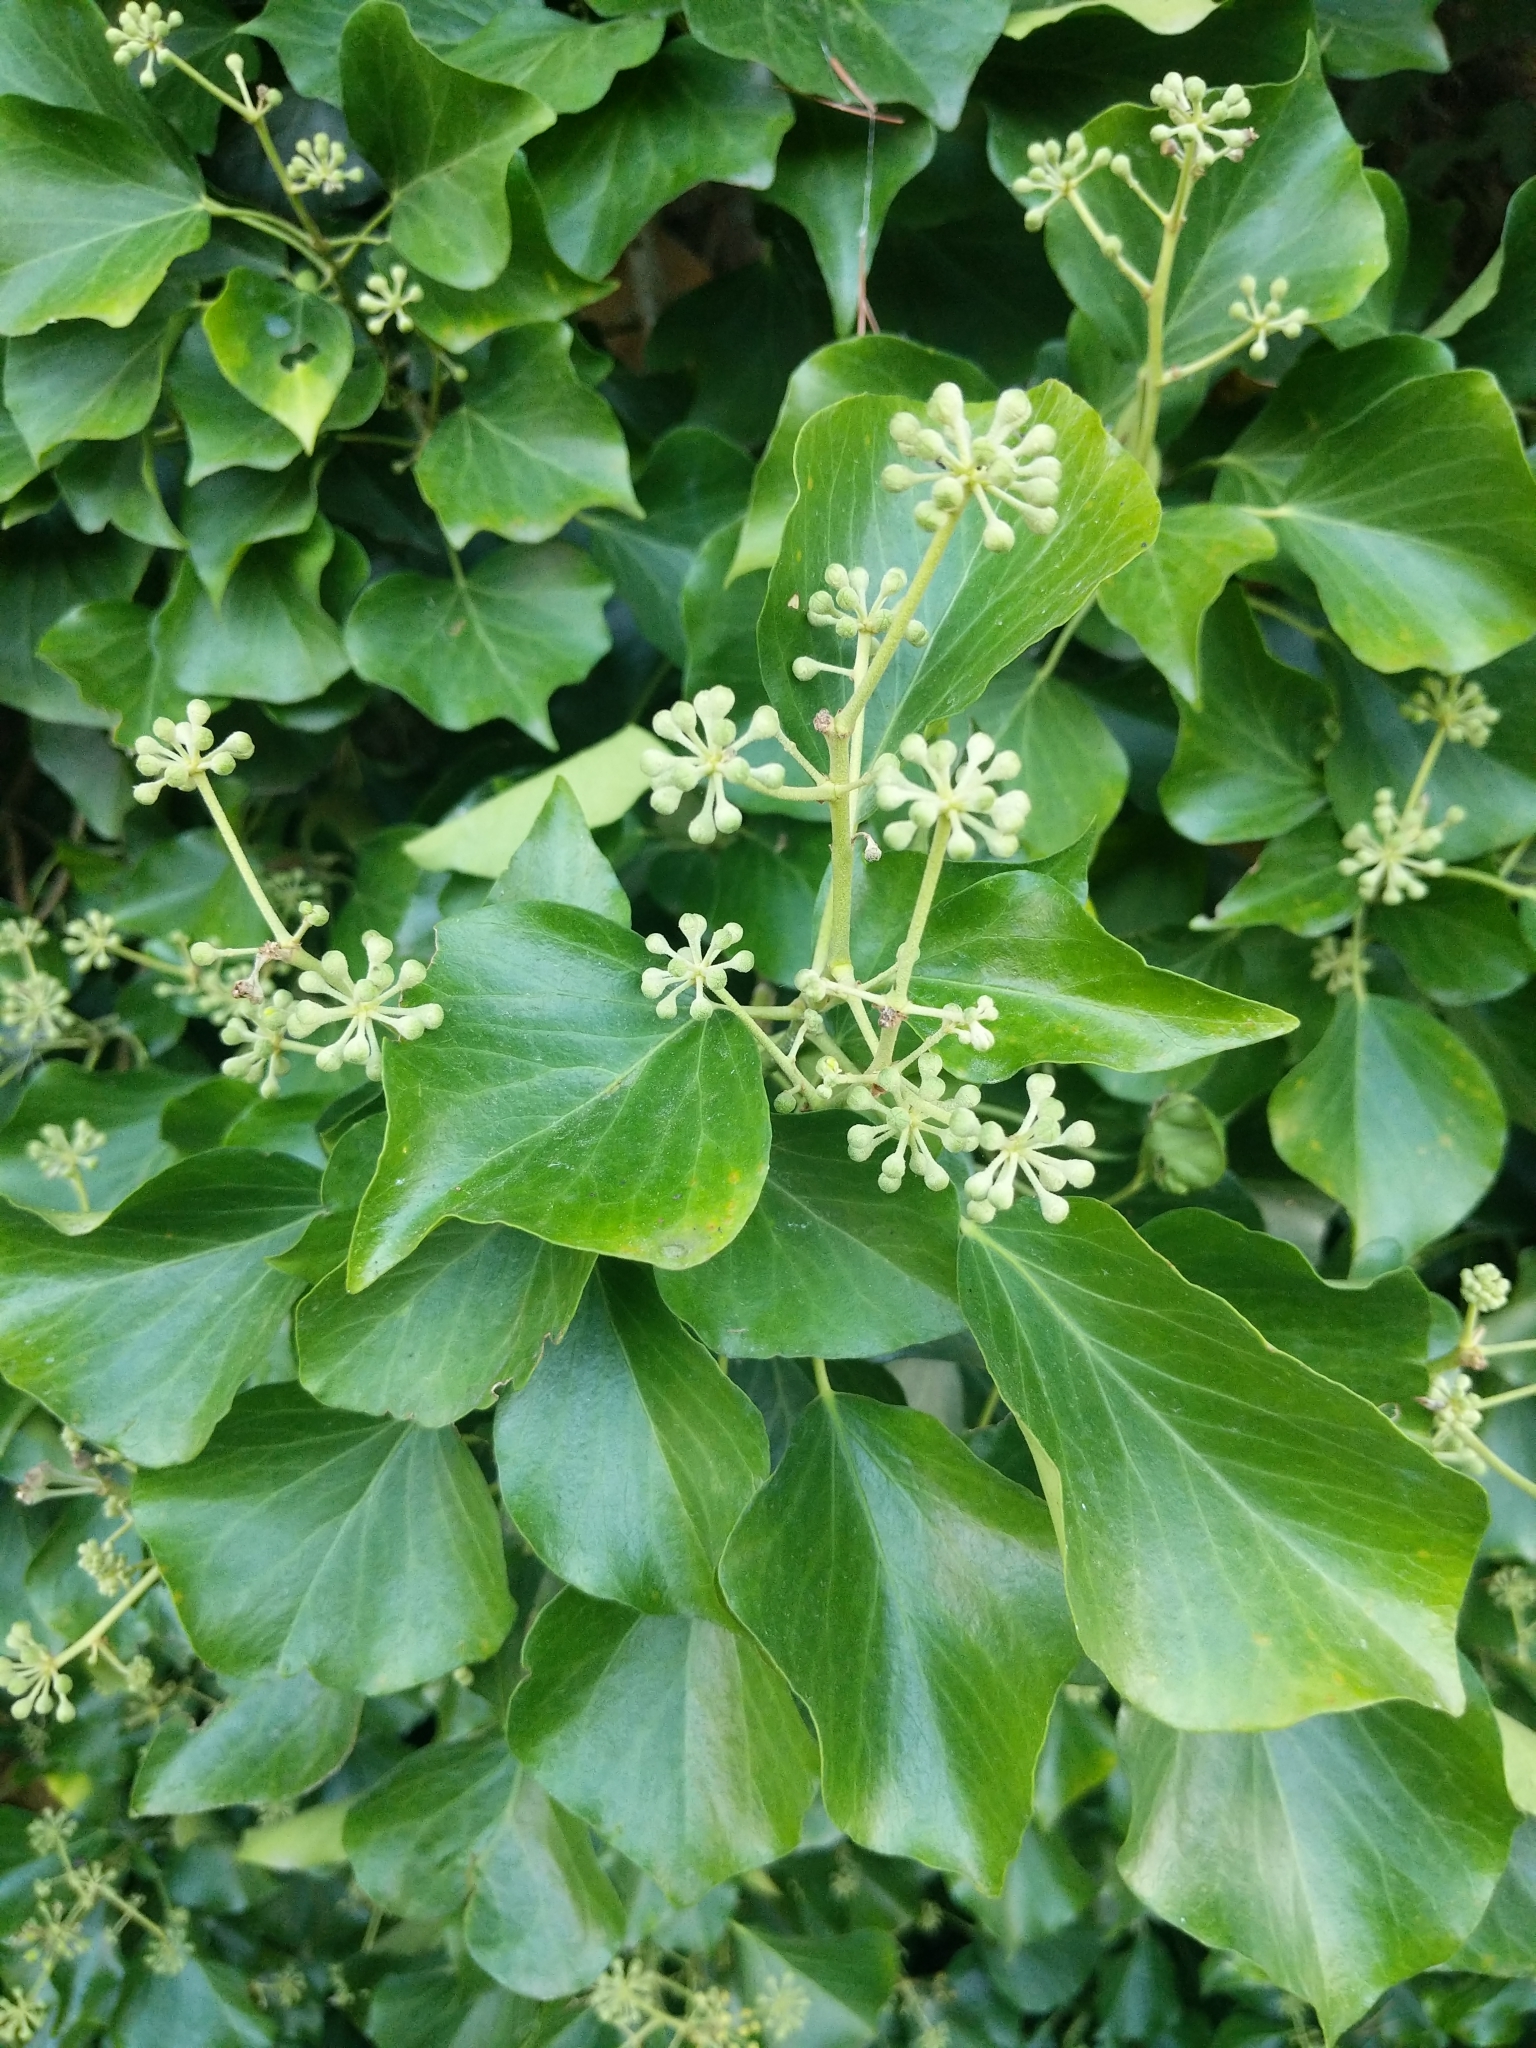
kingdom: Plantae
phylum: Tracheophyta
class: Magnoliopsida
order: Apiales
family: Araliaceae
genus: Hedera
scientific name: Hedera helix
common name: Ivy
